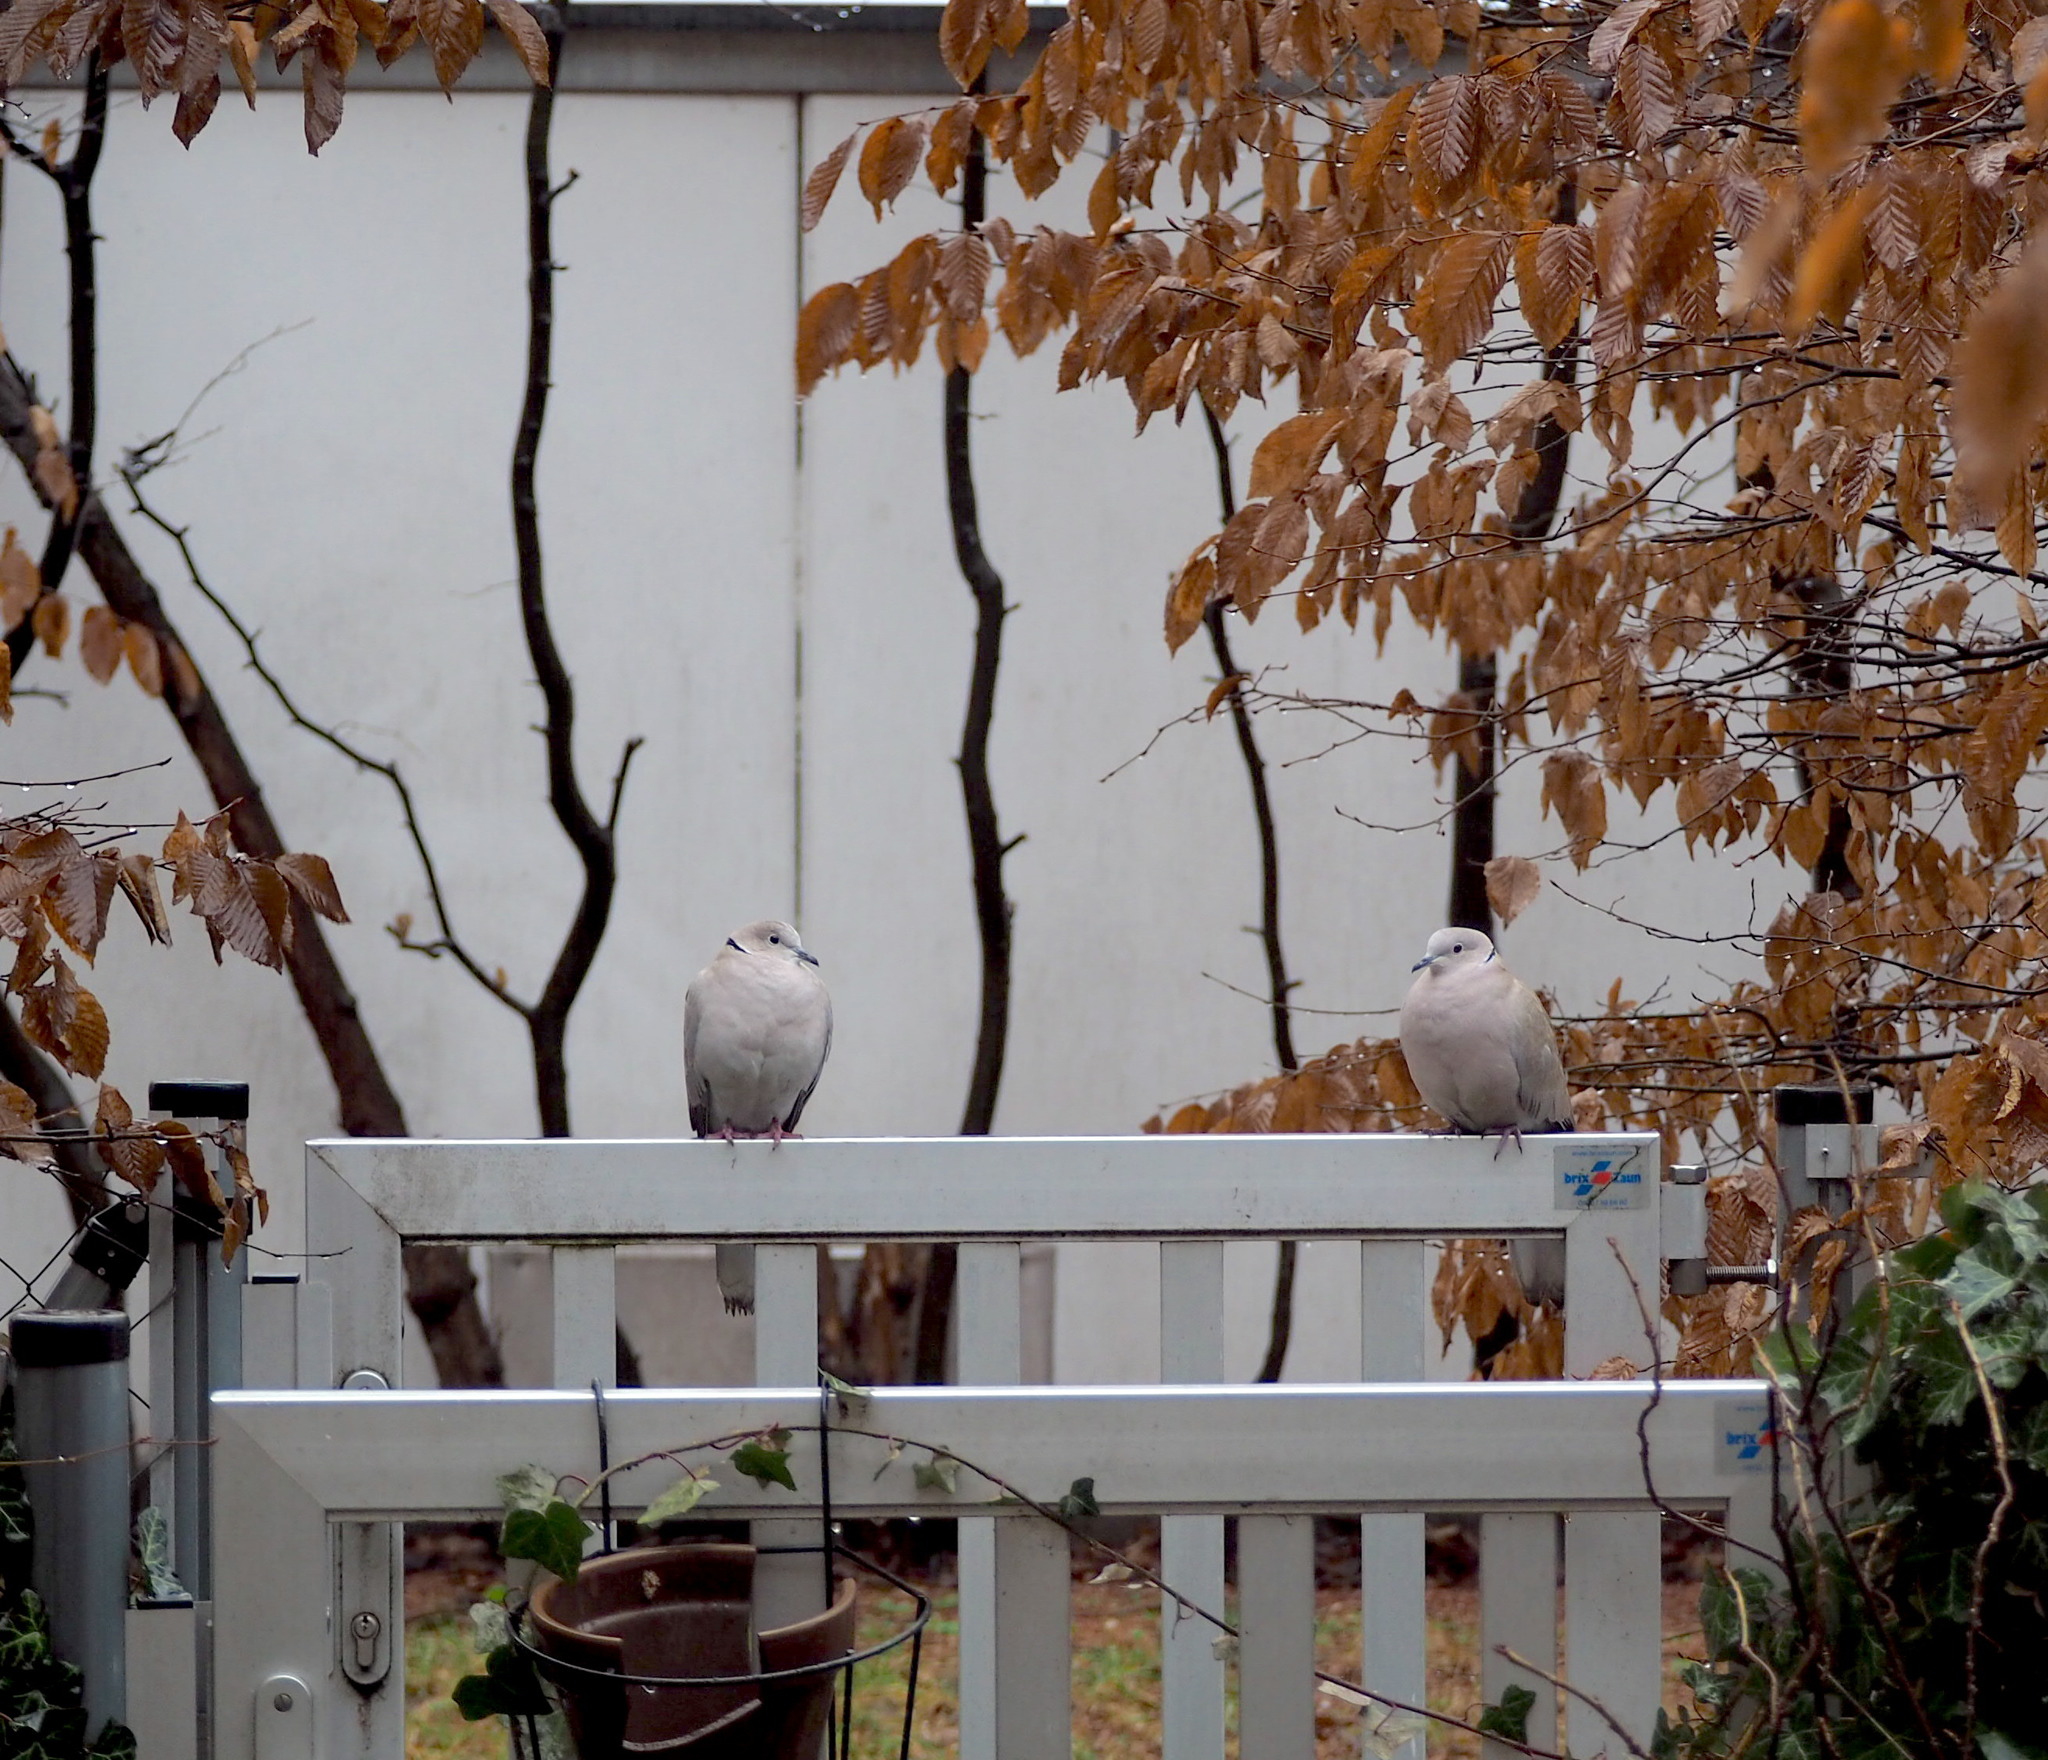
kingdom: Animalia
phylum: Chordata
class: Aves
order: Columbiformes
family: Columbidae
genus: Streptopelia
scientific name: Streptopelia decaocto
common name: Eurasian collared dove
